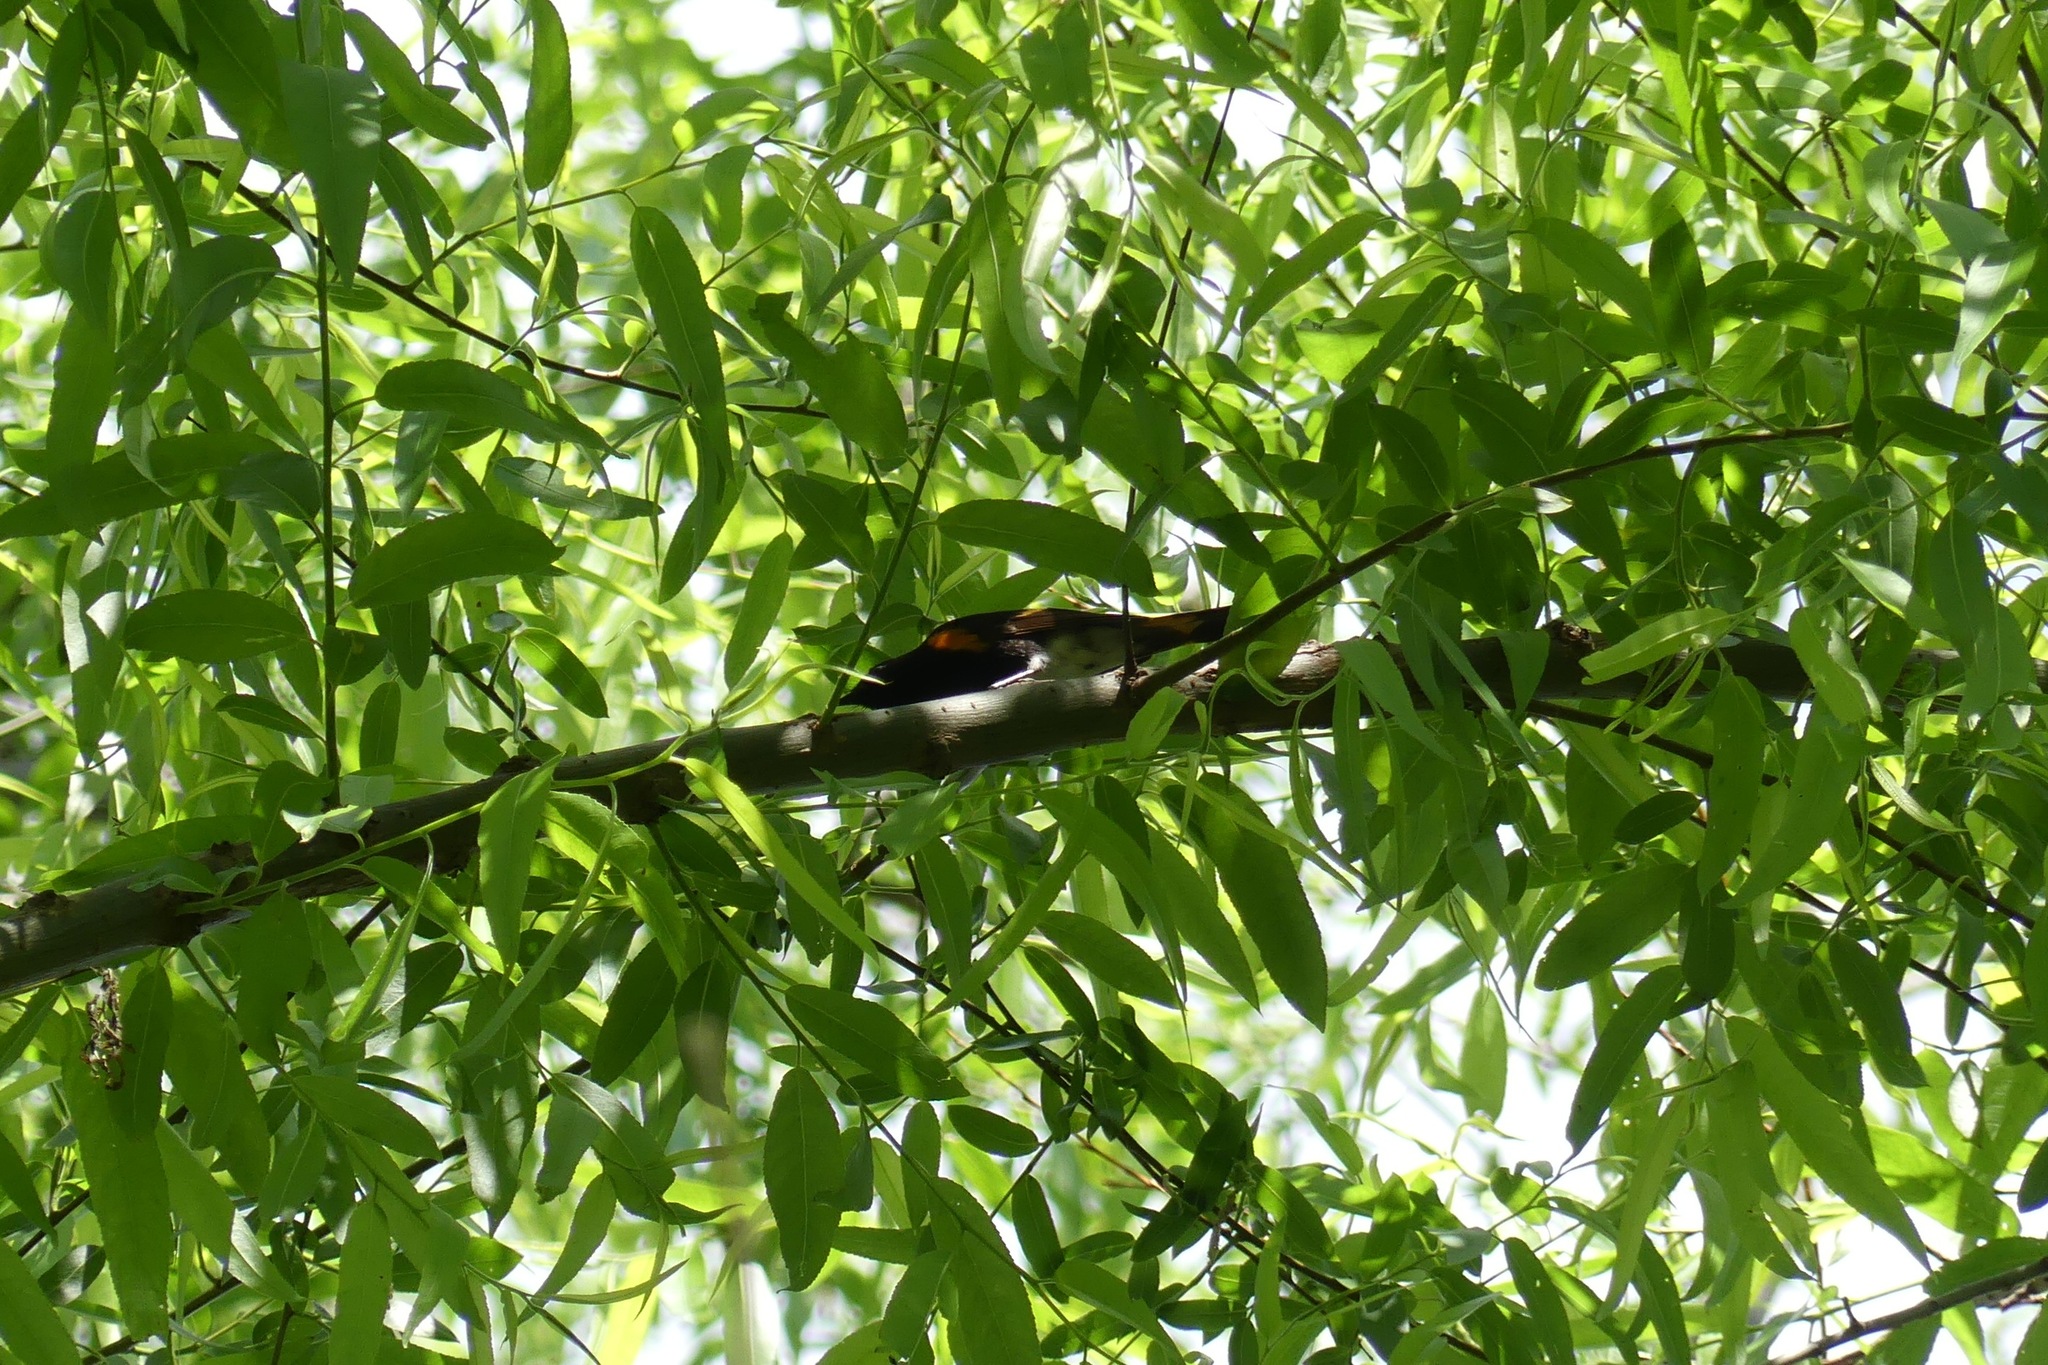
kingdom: Animalia
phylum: Chordata
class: Aves
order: Passeriformes
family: Parulidae
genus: Setophaga
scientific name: Setophaga ruticilla
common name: American redstart
